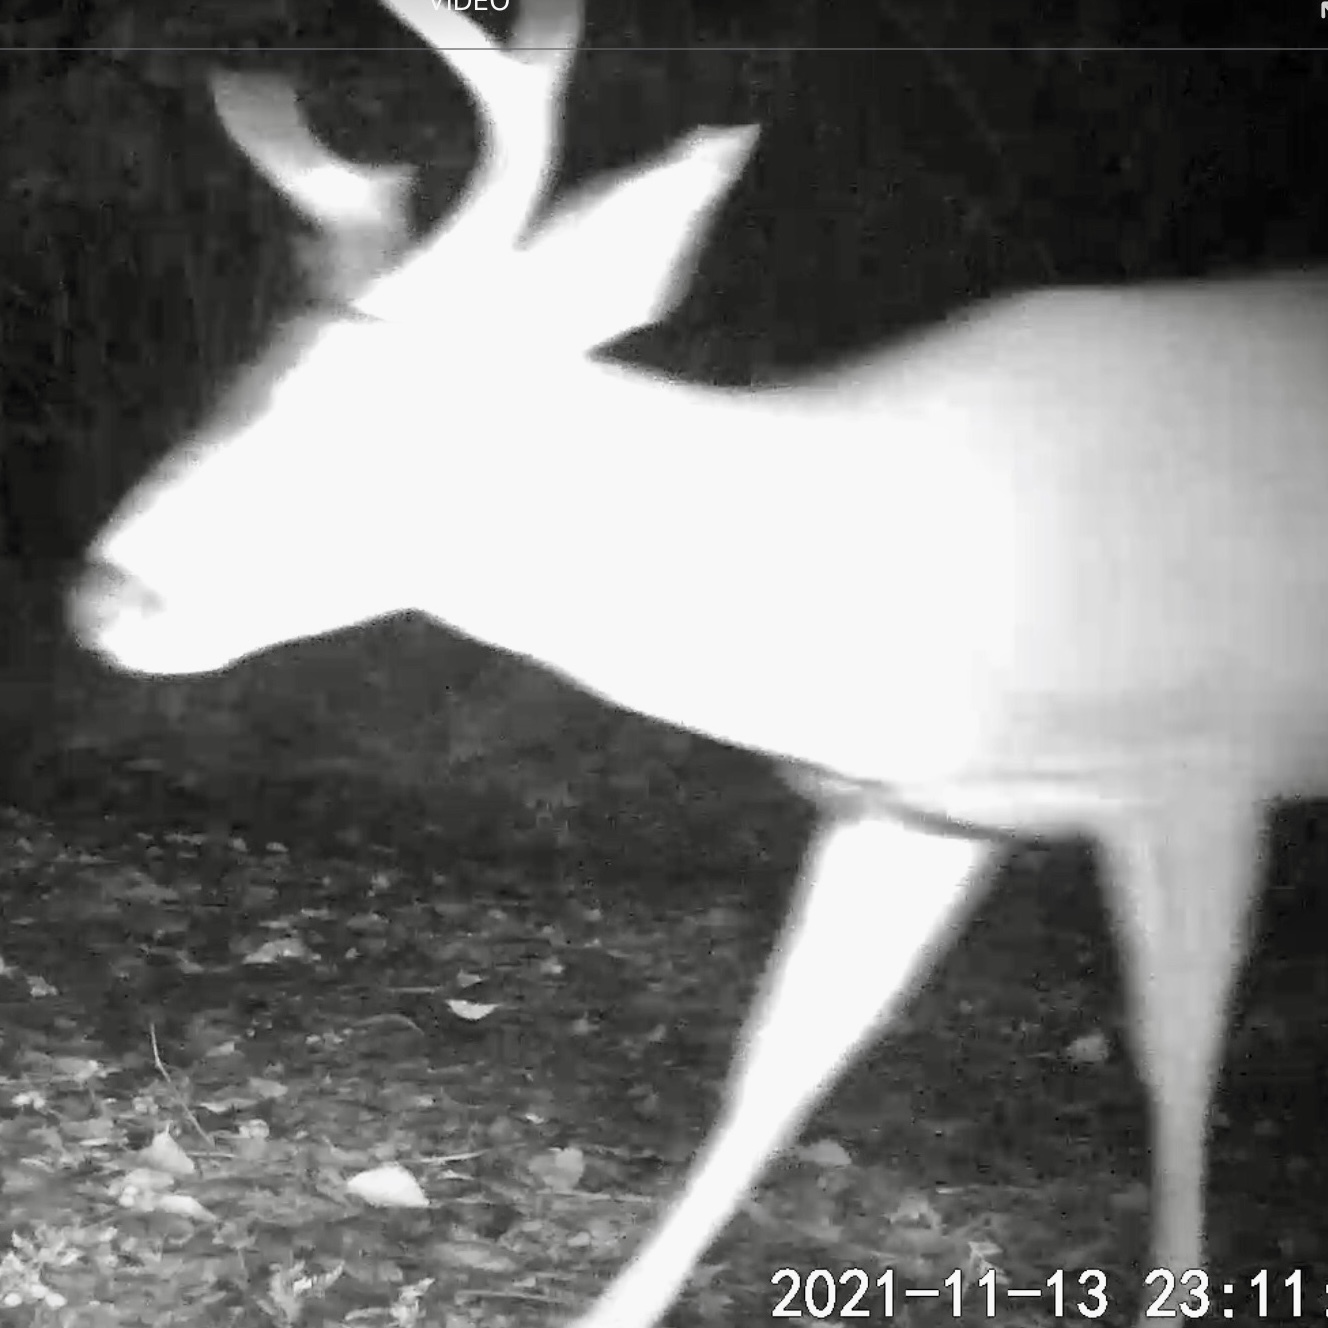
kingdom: Animalia
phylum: Chordata
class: Mammalia
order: Artiodactyla
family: Cervidae
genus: Odocoileus
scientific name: Odocoileus hemionus
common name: Mule deer
